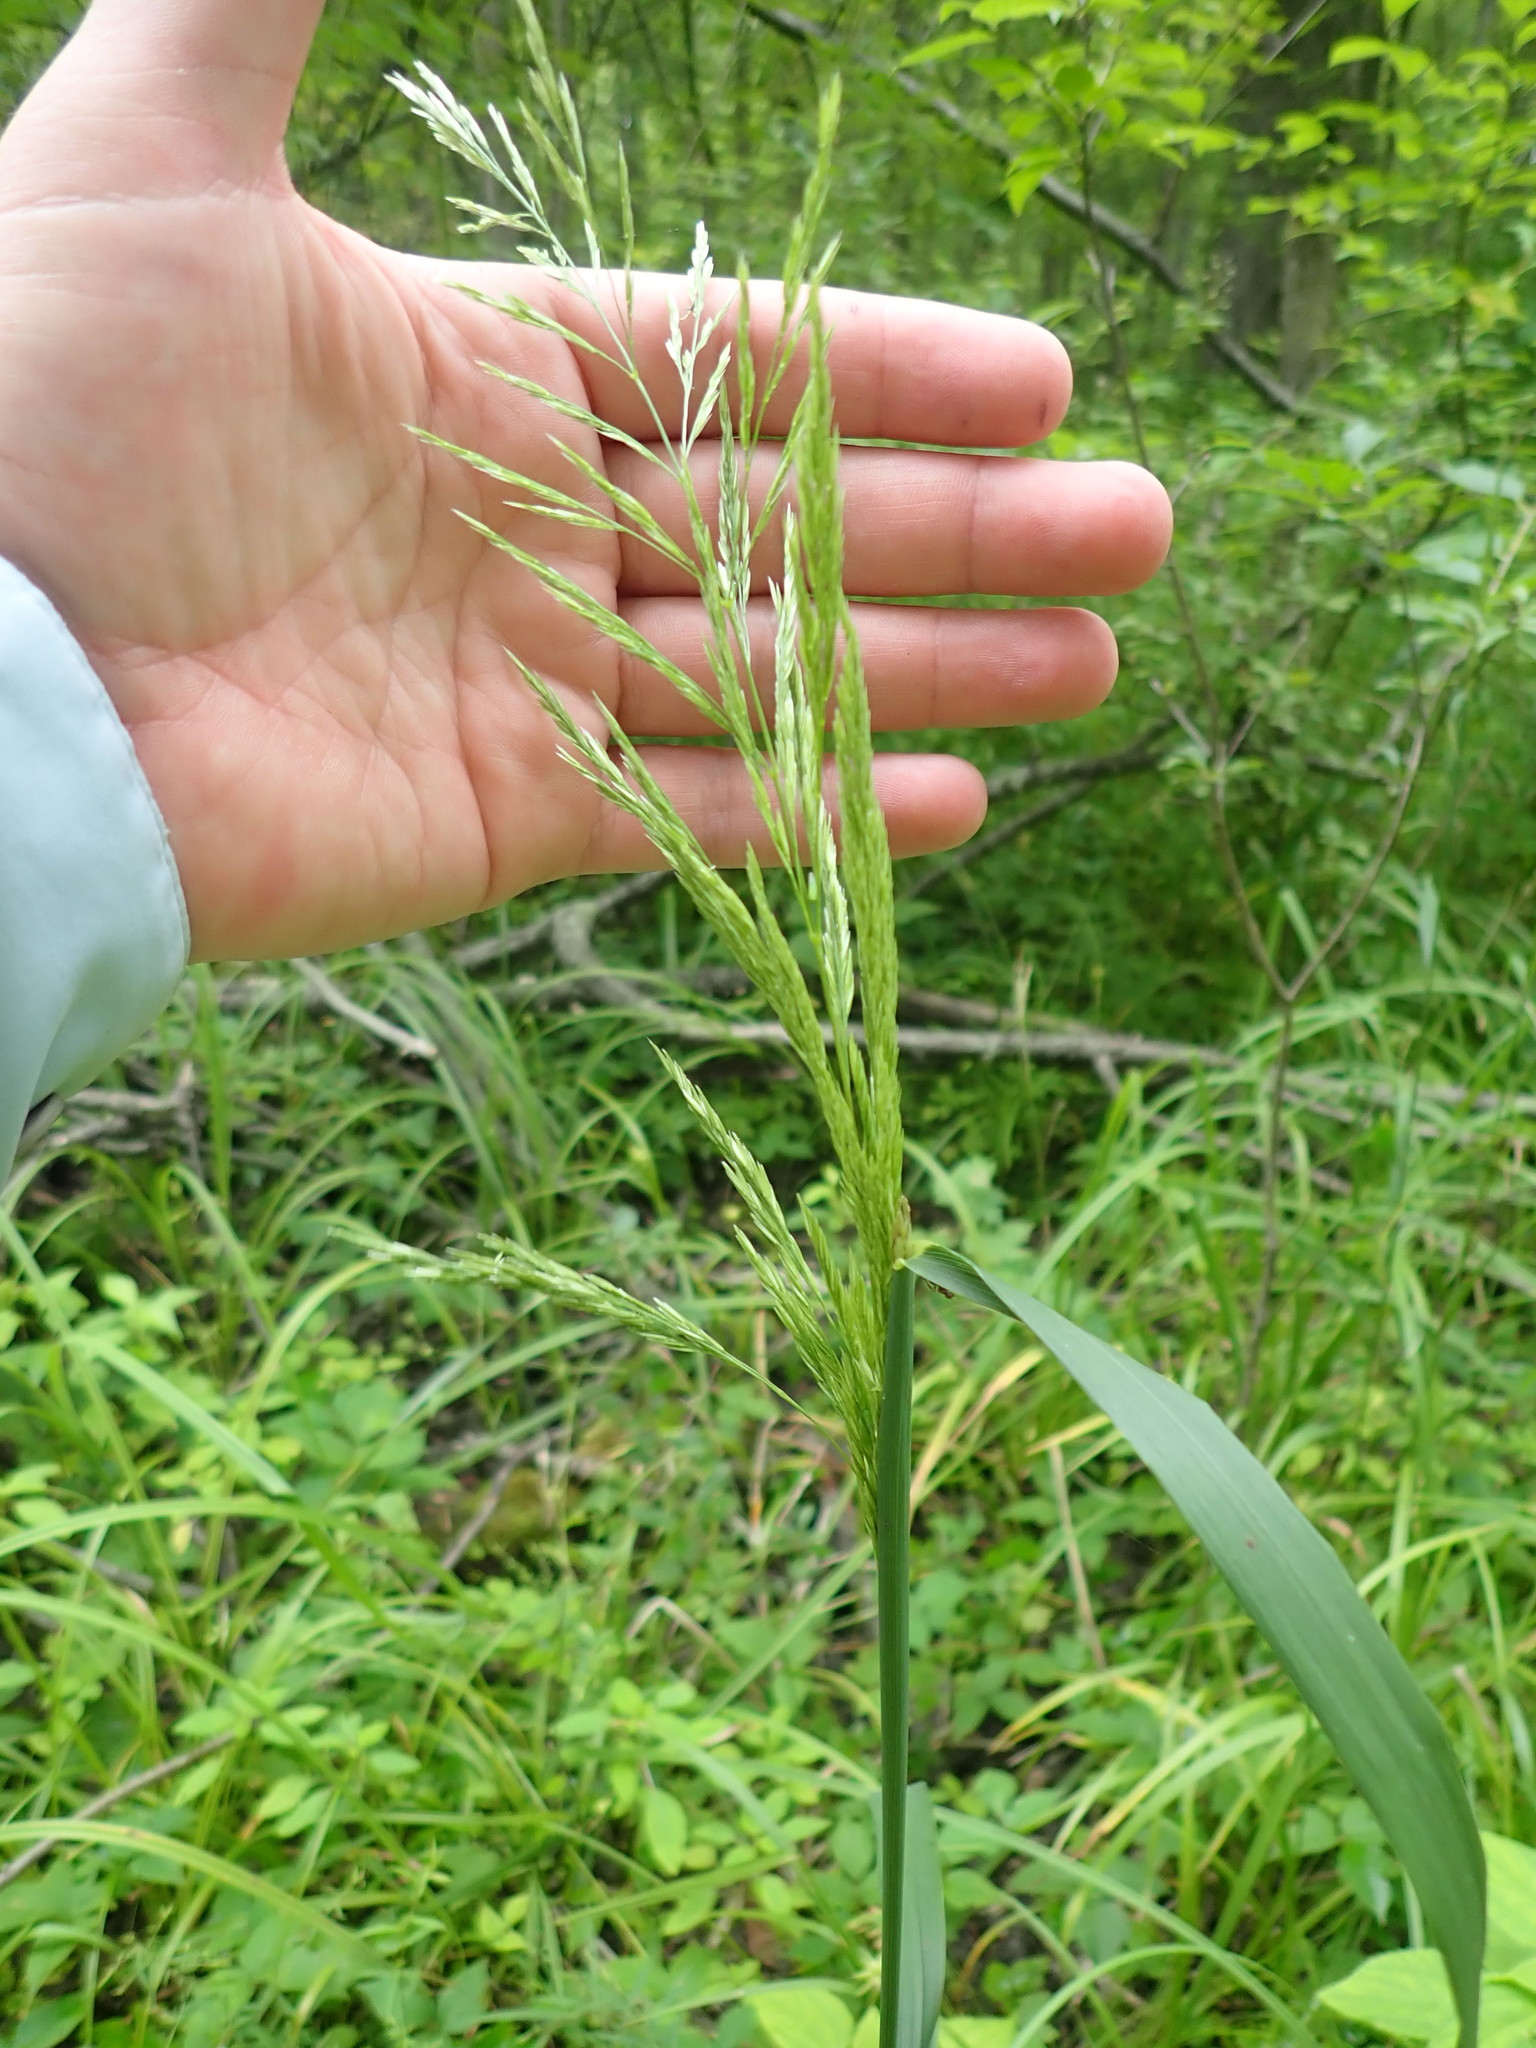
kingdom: Plantae
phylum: Tracheophyta
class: Liliopsida
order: Poales
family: Poaceae
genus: Cinna
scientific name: Cinna arundinacea
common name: Stout woodreed
